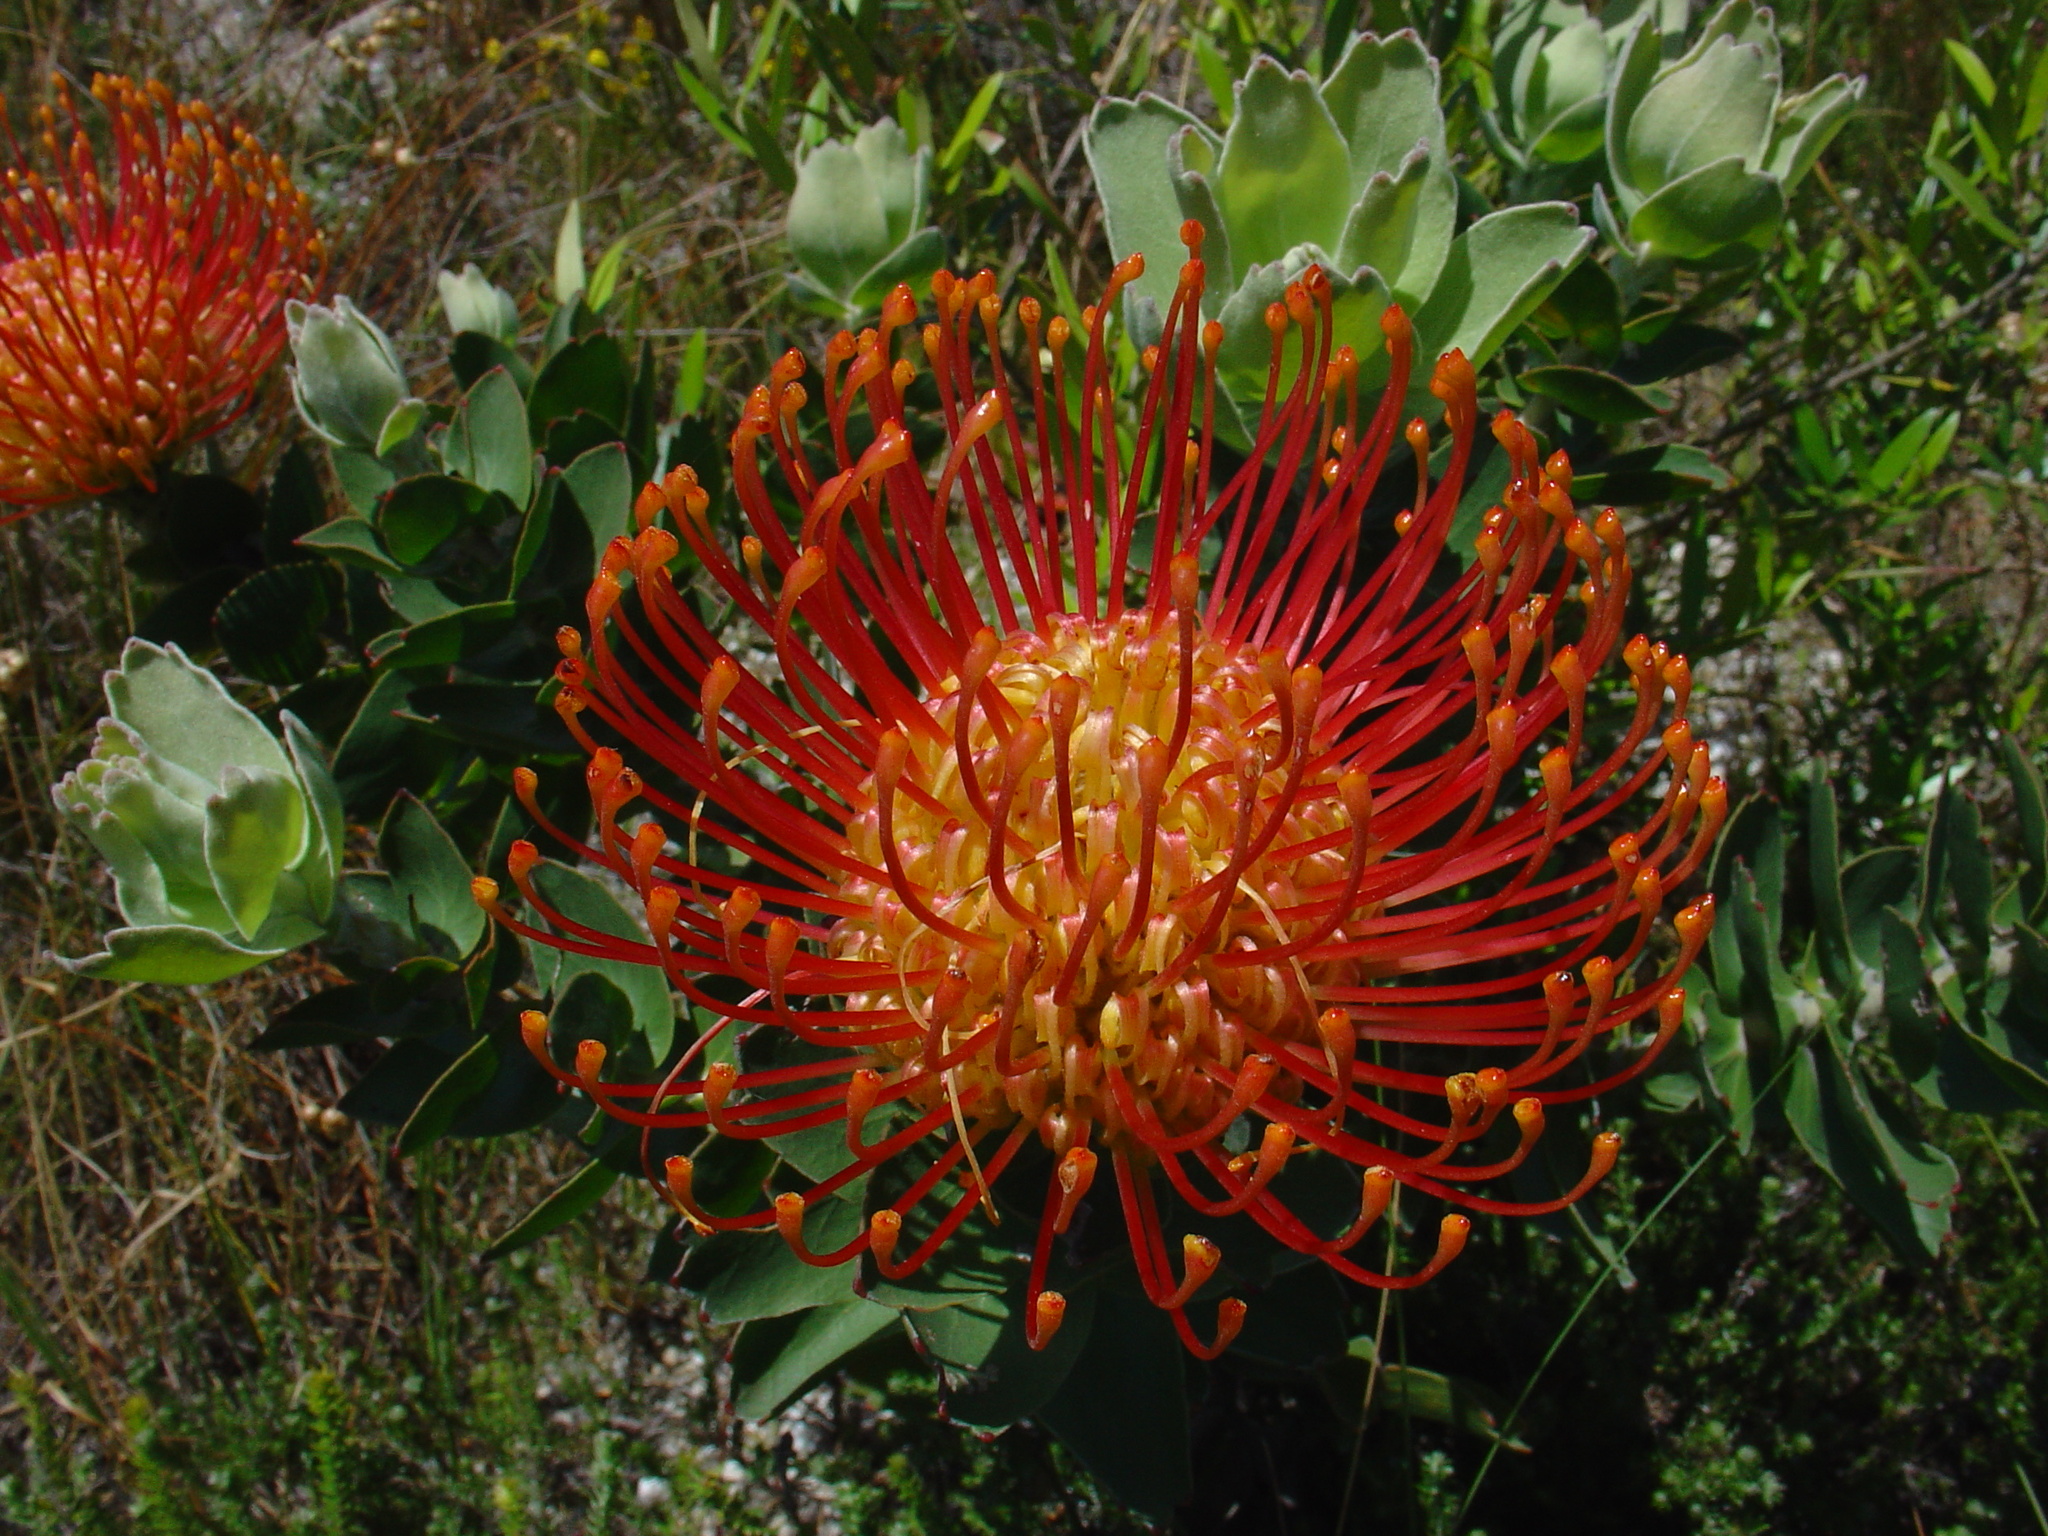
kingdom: Plantae
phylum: Tracheophyta
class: Magnoliopsida
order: Proteales
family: Proteaceae
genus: Leucospermum
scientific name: Leucospermum cordifolium
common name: Red pincushion-protea
